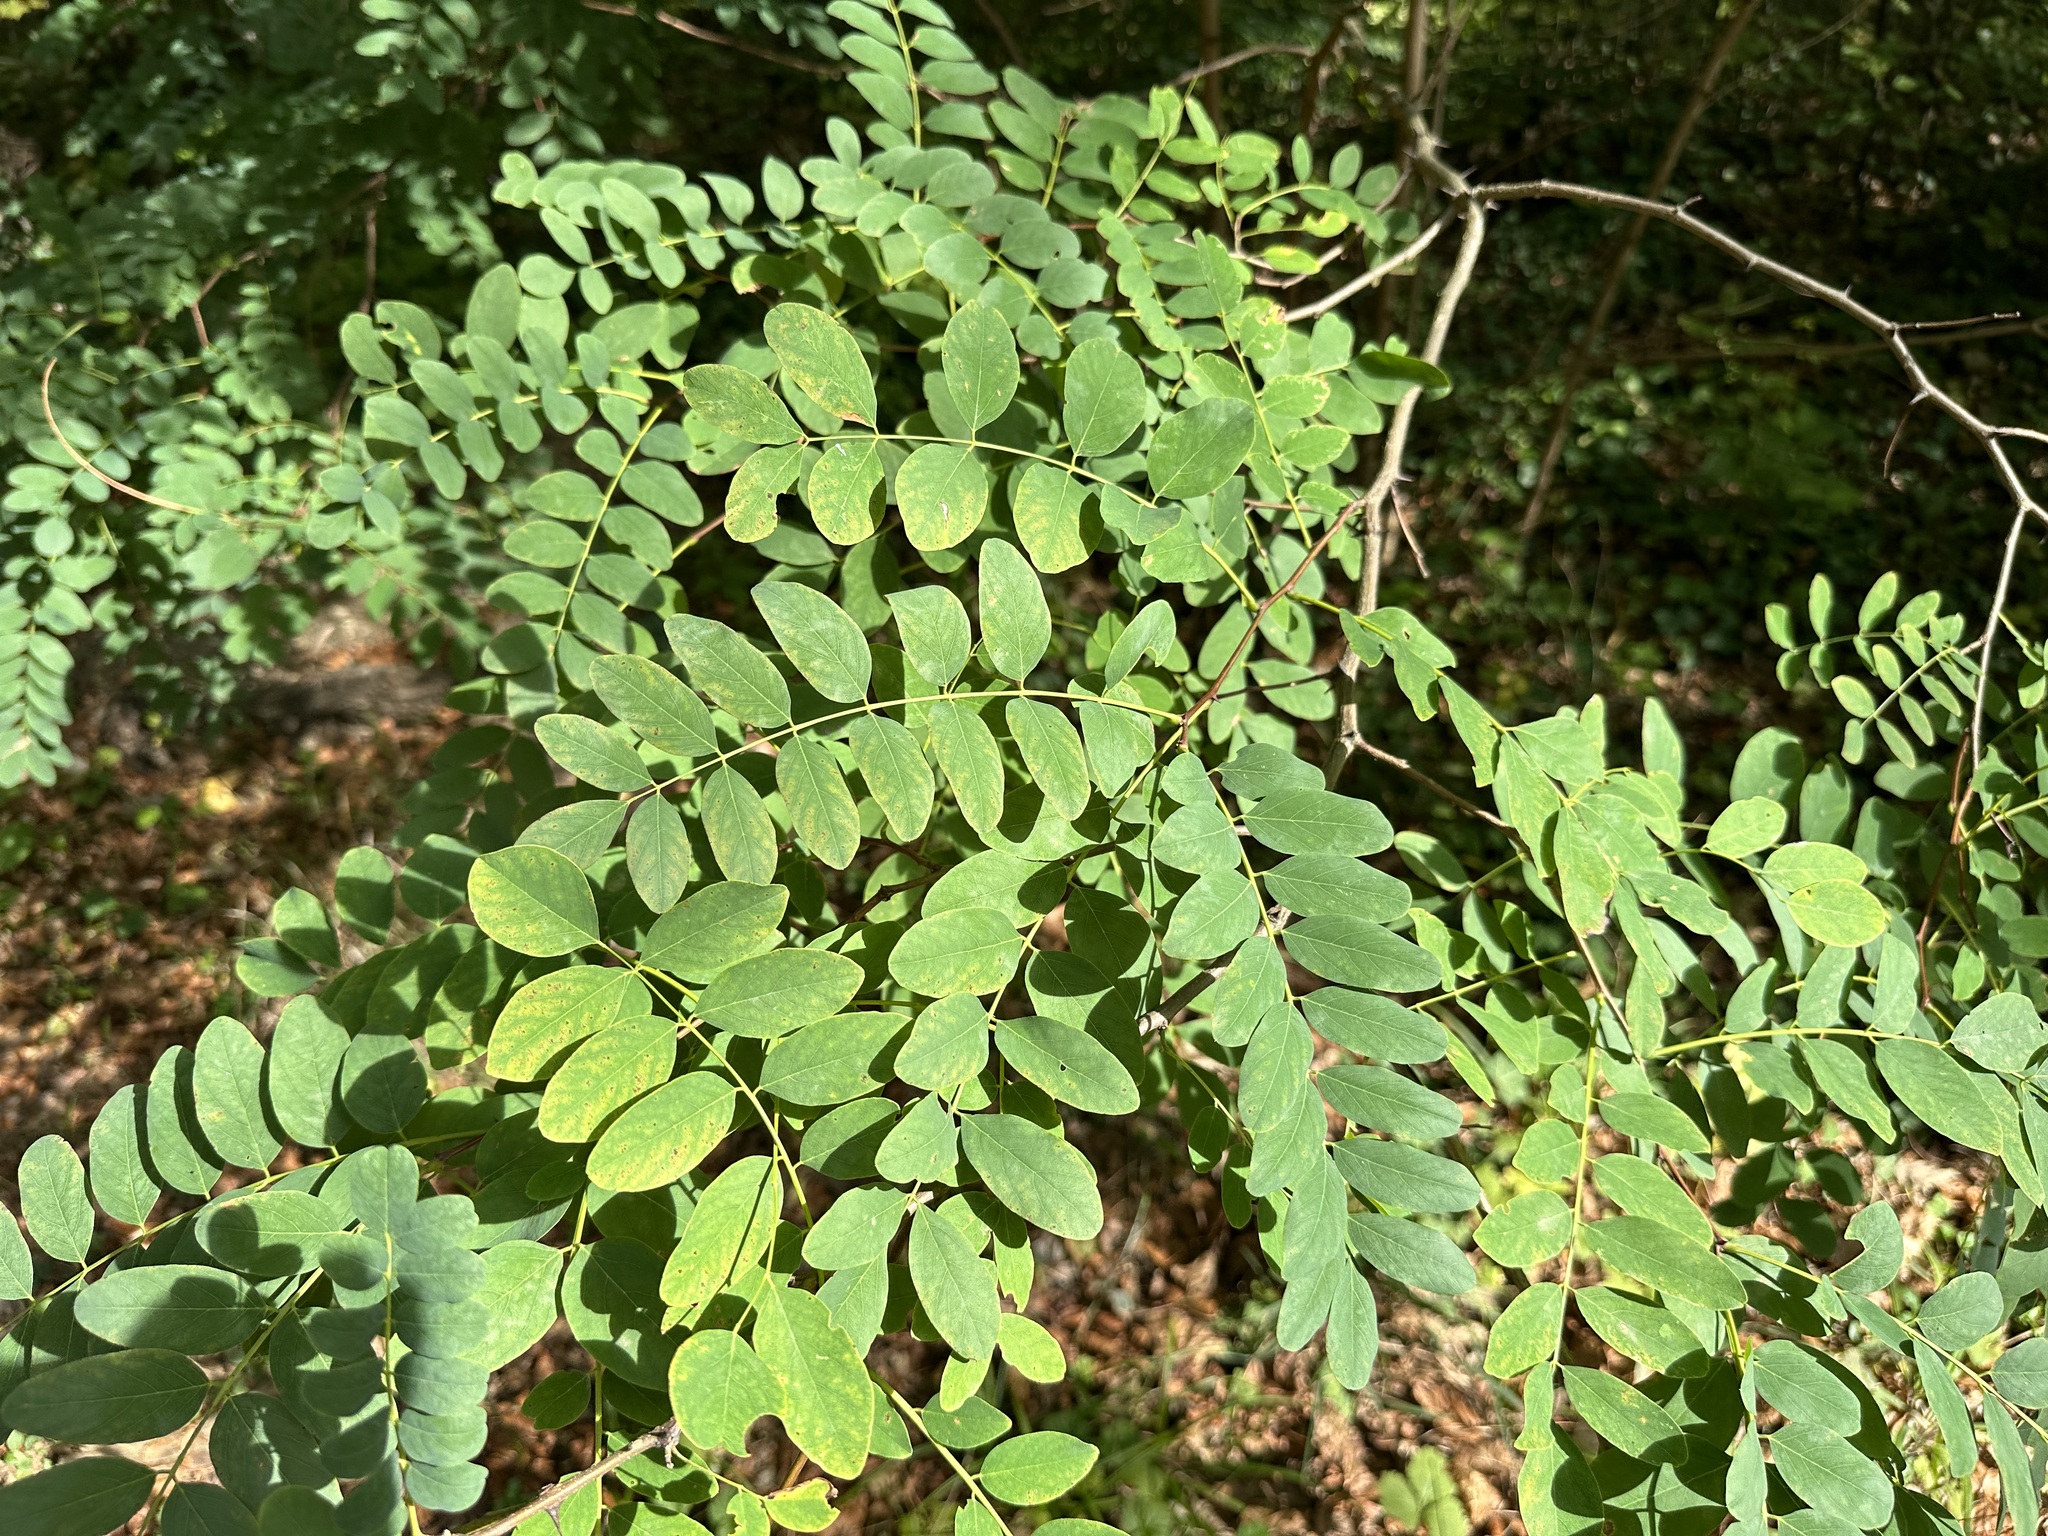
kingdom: Plantae
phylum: Tracheophyta
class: Magnoliopsida
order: Fabales
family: Fabaceae
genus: Robinia
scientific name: Robinia pseudoacacia
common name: Black locust
